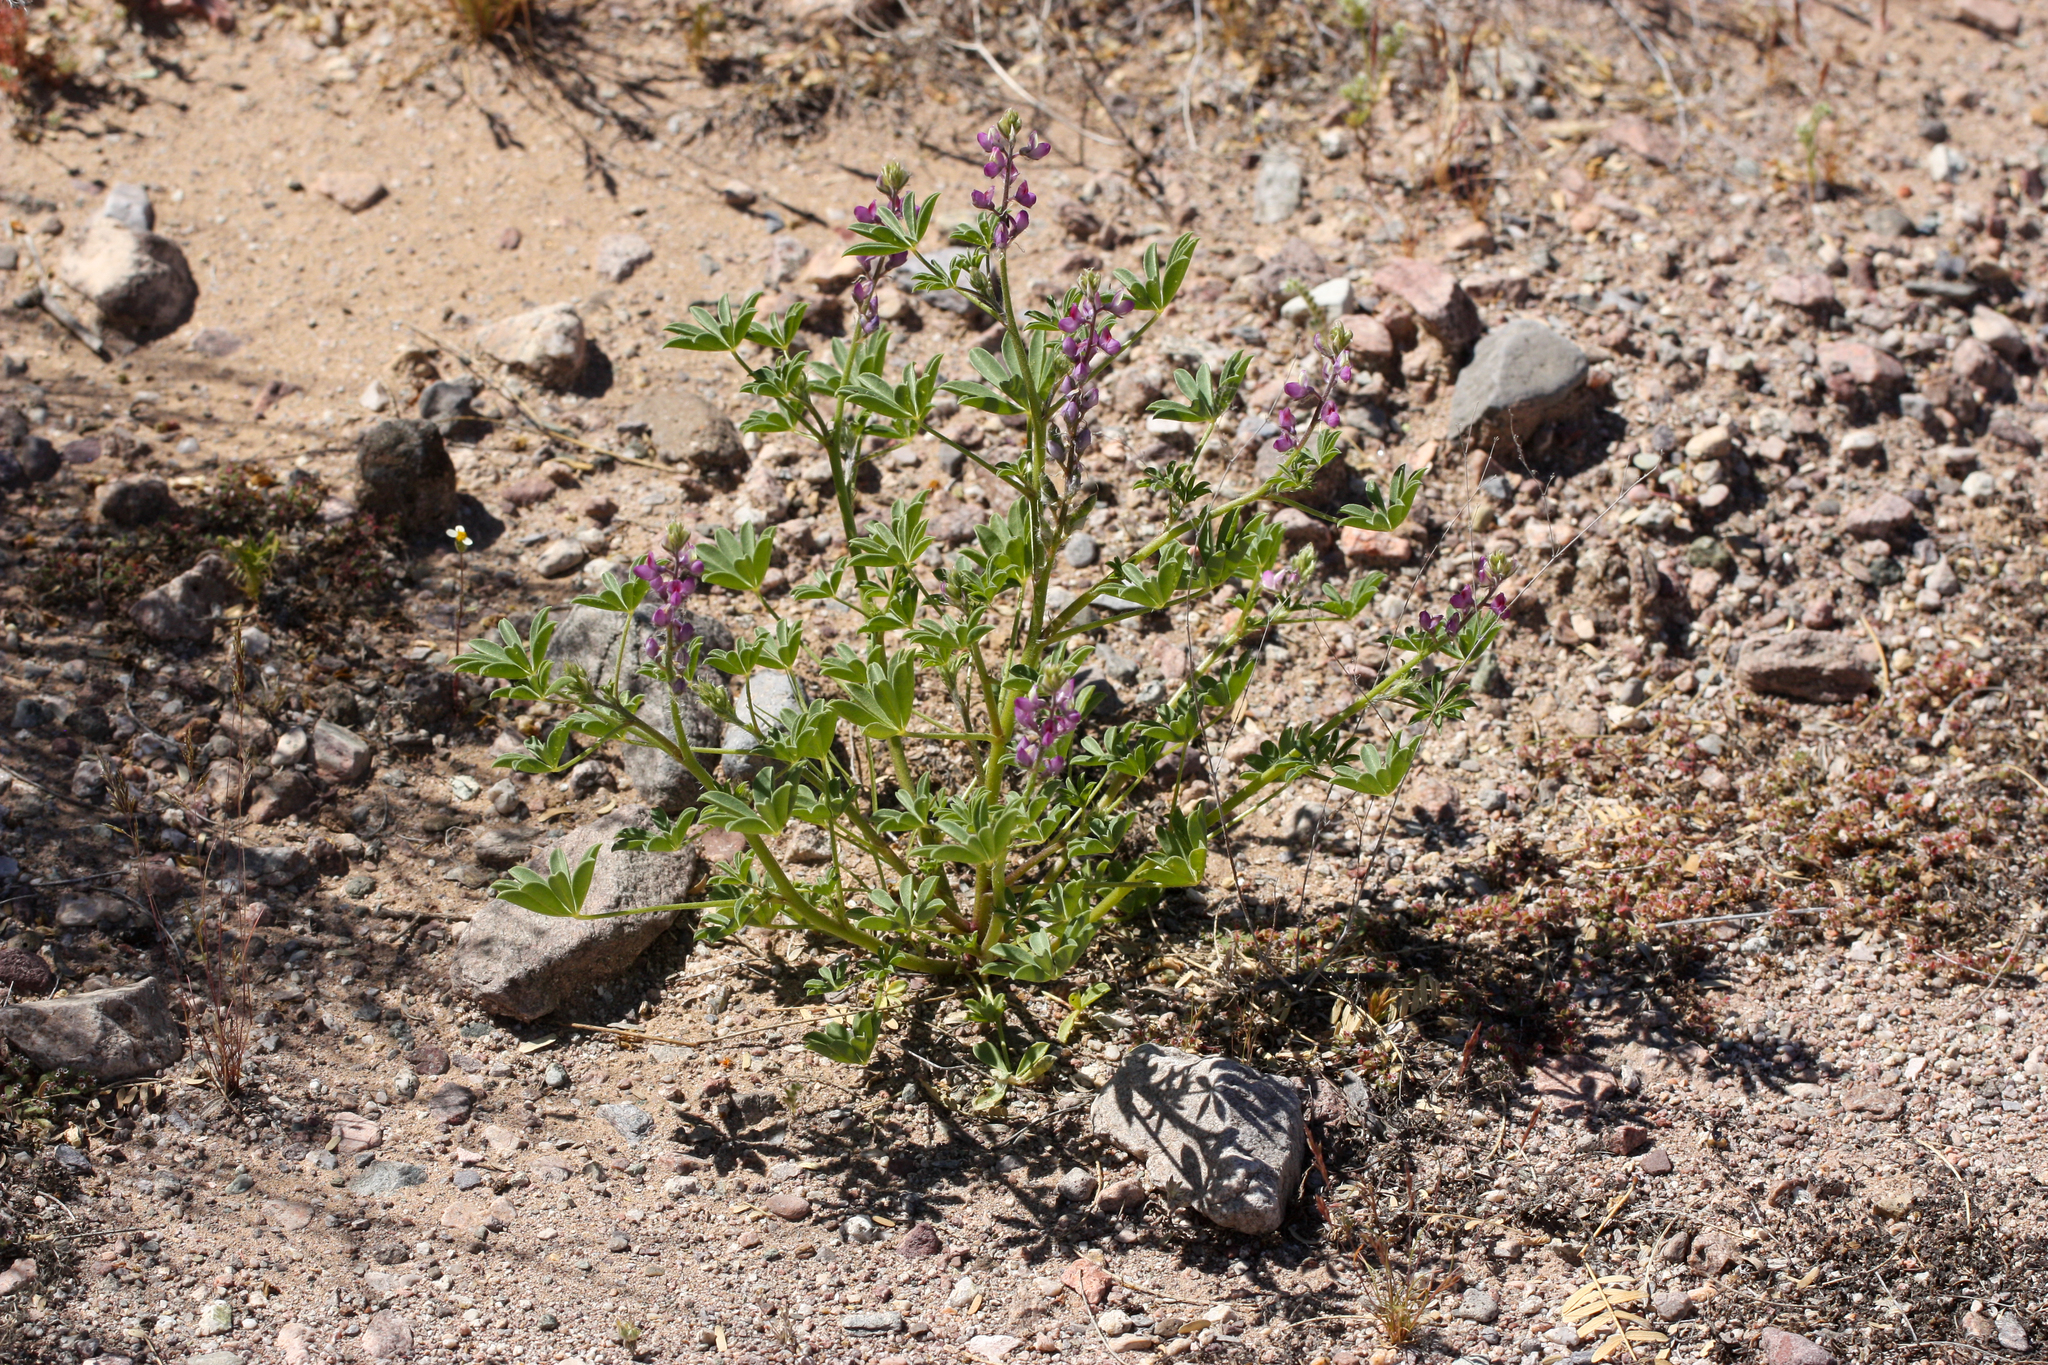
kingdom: Plantae
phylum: Tracheophyta
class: Magnoliopsida
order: Fabales
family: Fabaceae
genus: Lupinus
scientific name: Lupinus arizonicus
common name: Arizona lupine
